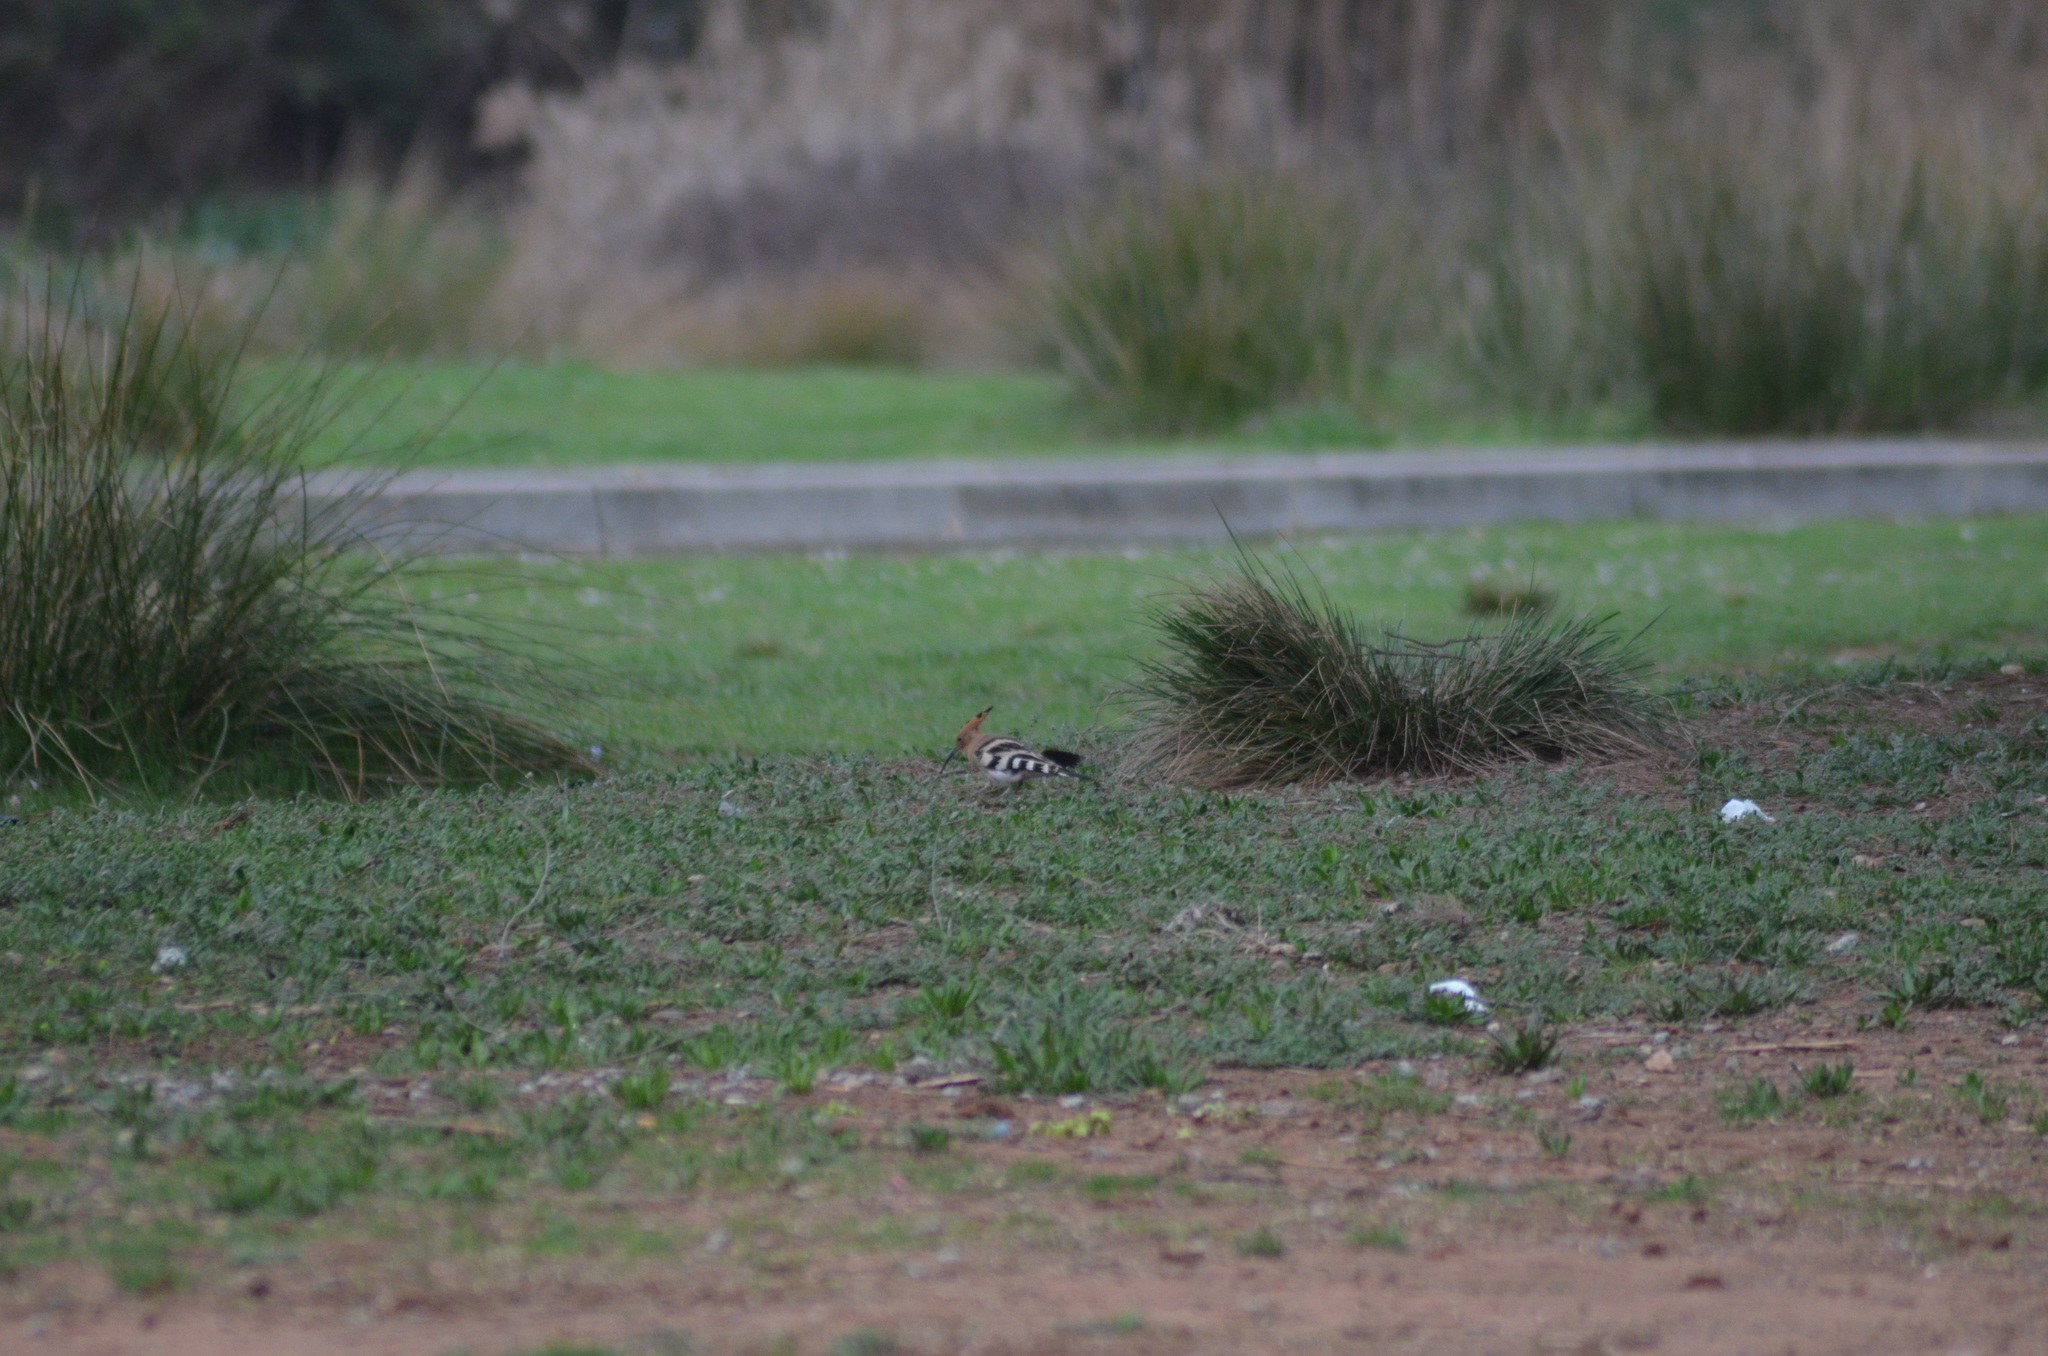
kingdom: Animalia
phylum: Chordata
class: Aves
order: Bucerotiformes
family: Upupidae
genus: Upupa
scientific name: Upupa epops
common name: Eurasian hoopoe
